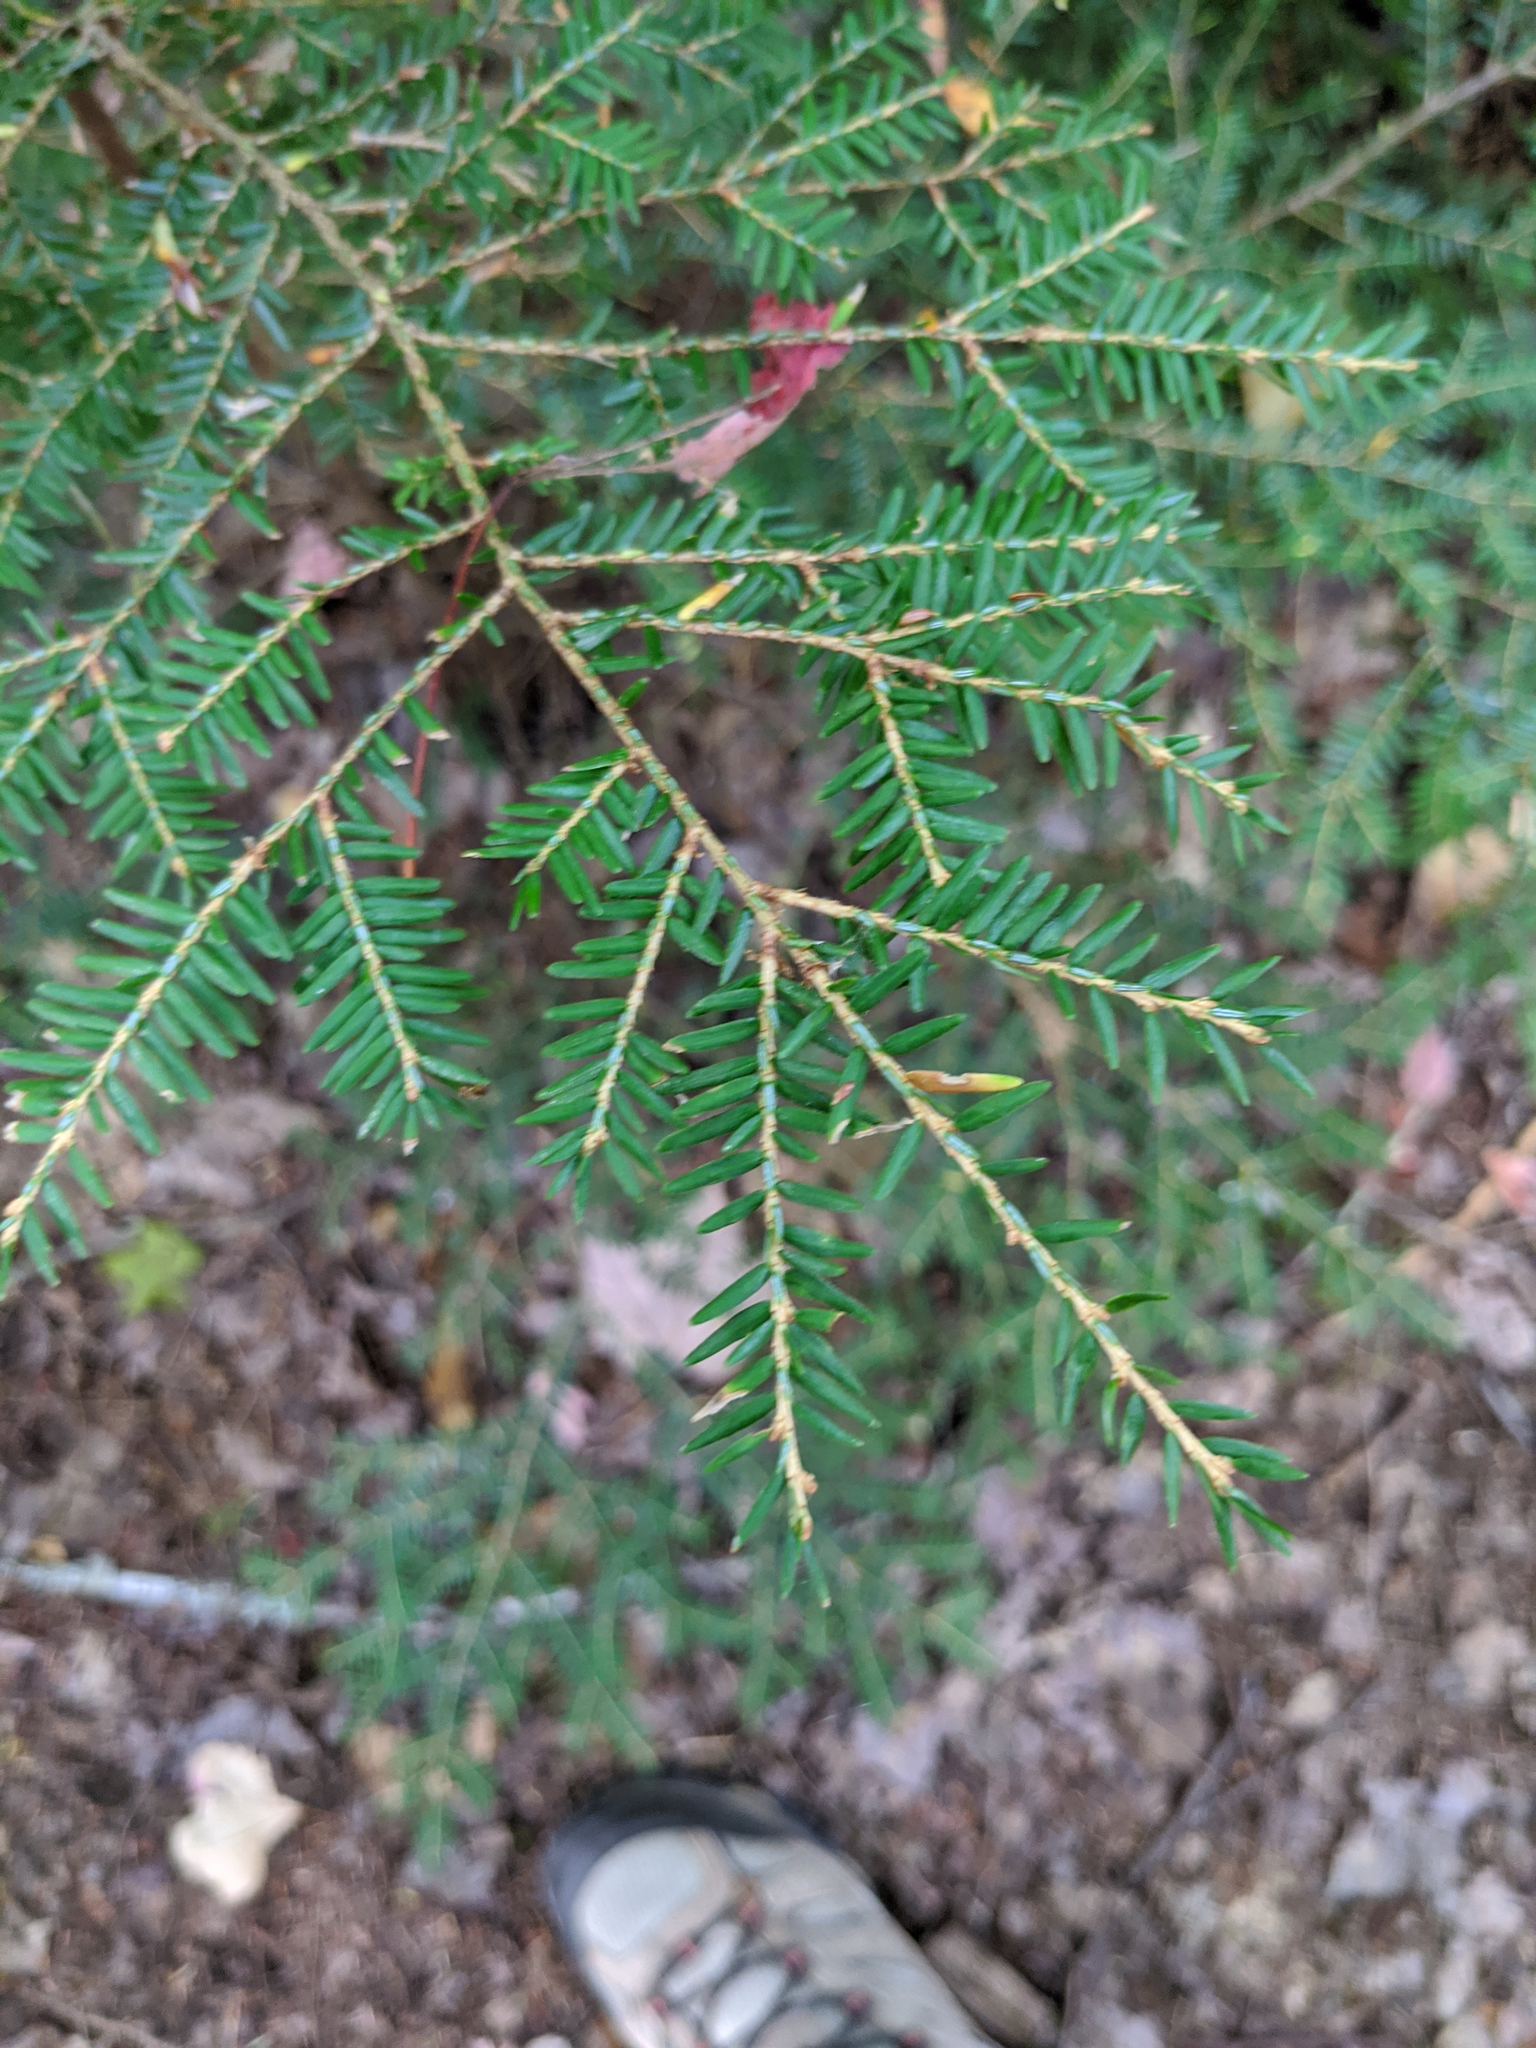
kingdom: Plantae
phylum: Tracheophyta
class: Pinopsida
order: Pinales
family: Pinaceae
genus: Tsuga
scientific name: Tsuga canadensis
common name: Eastern hemlock
